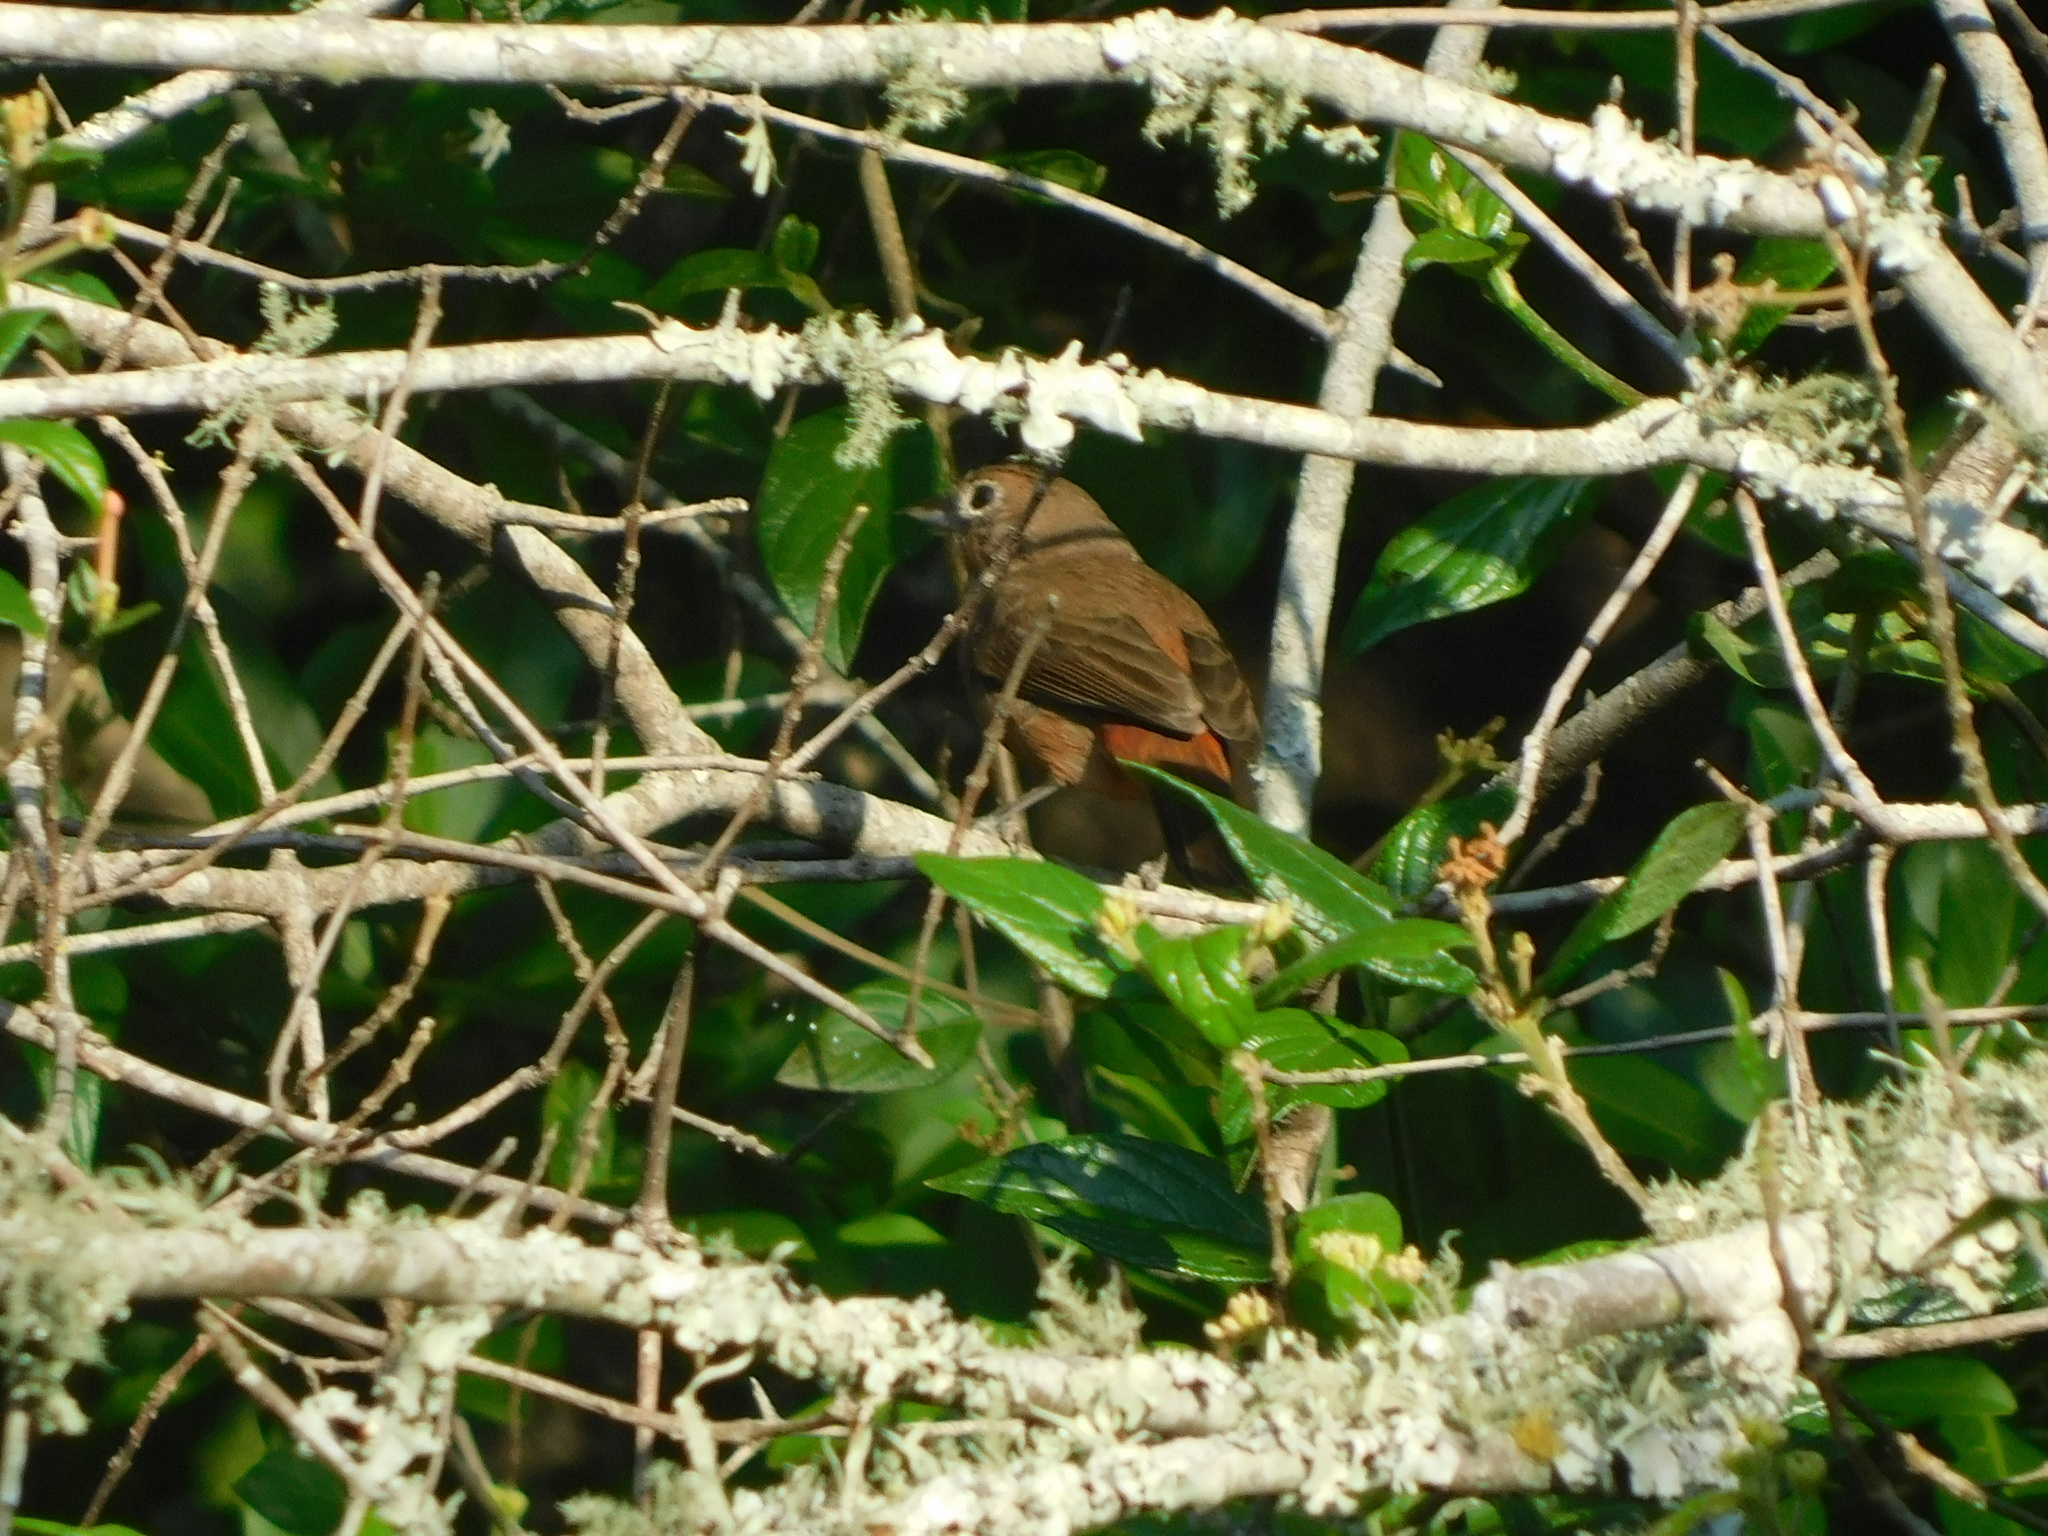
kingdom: Animalia
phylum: Chordata
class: Aves
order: Passeriformes
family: Thraupidae
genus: Coryphospingus
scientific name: Coryphospingus cucullatus
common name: Red pileated finch
